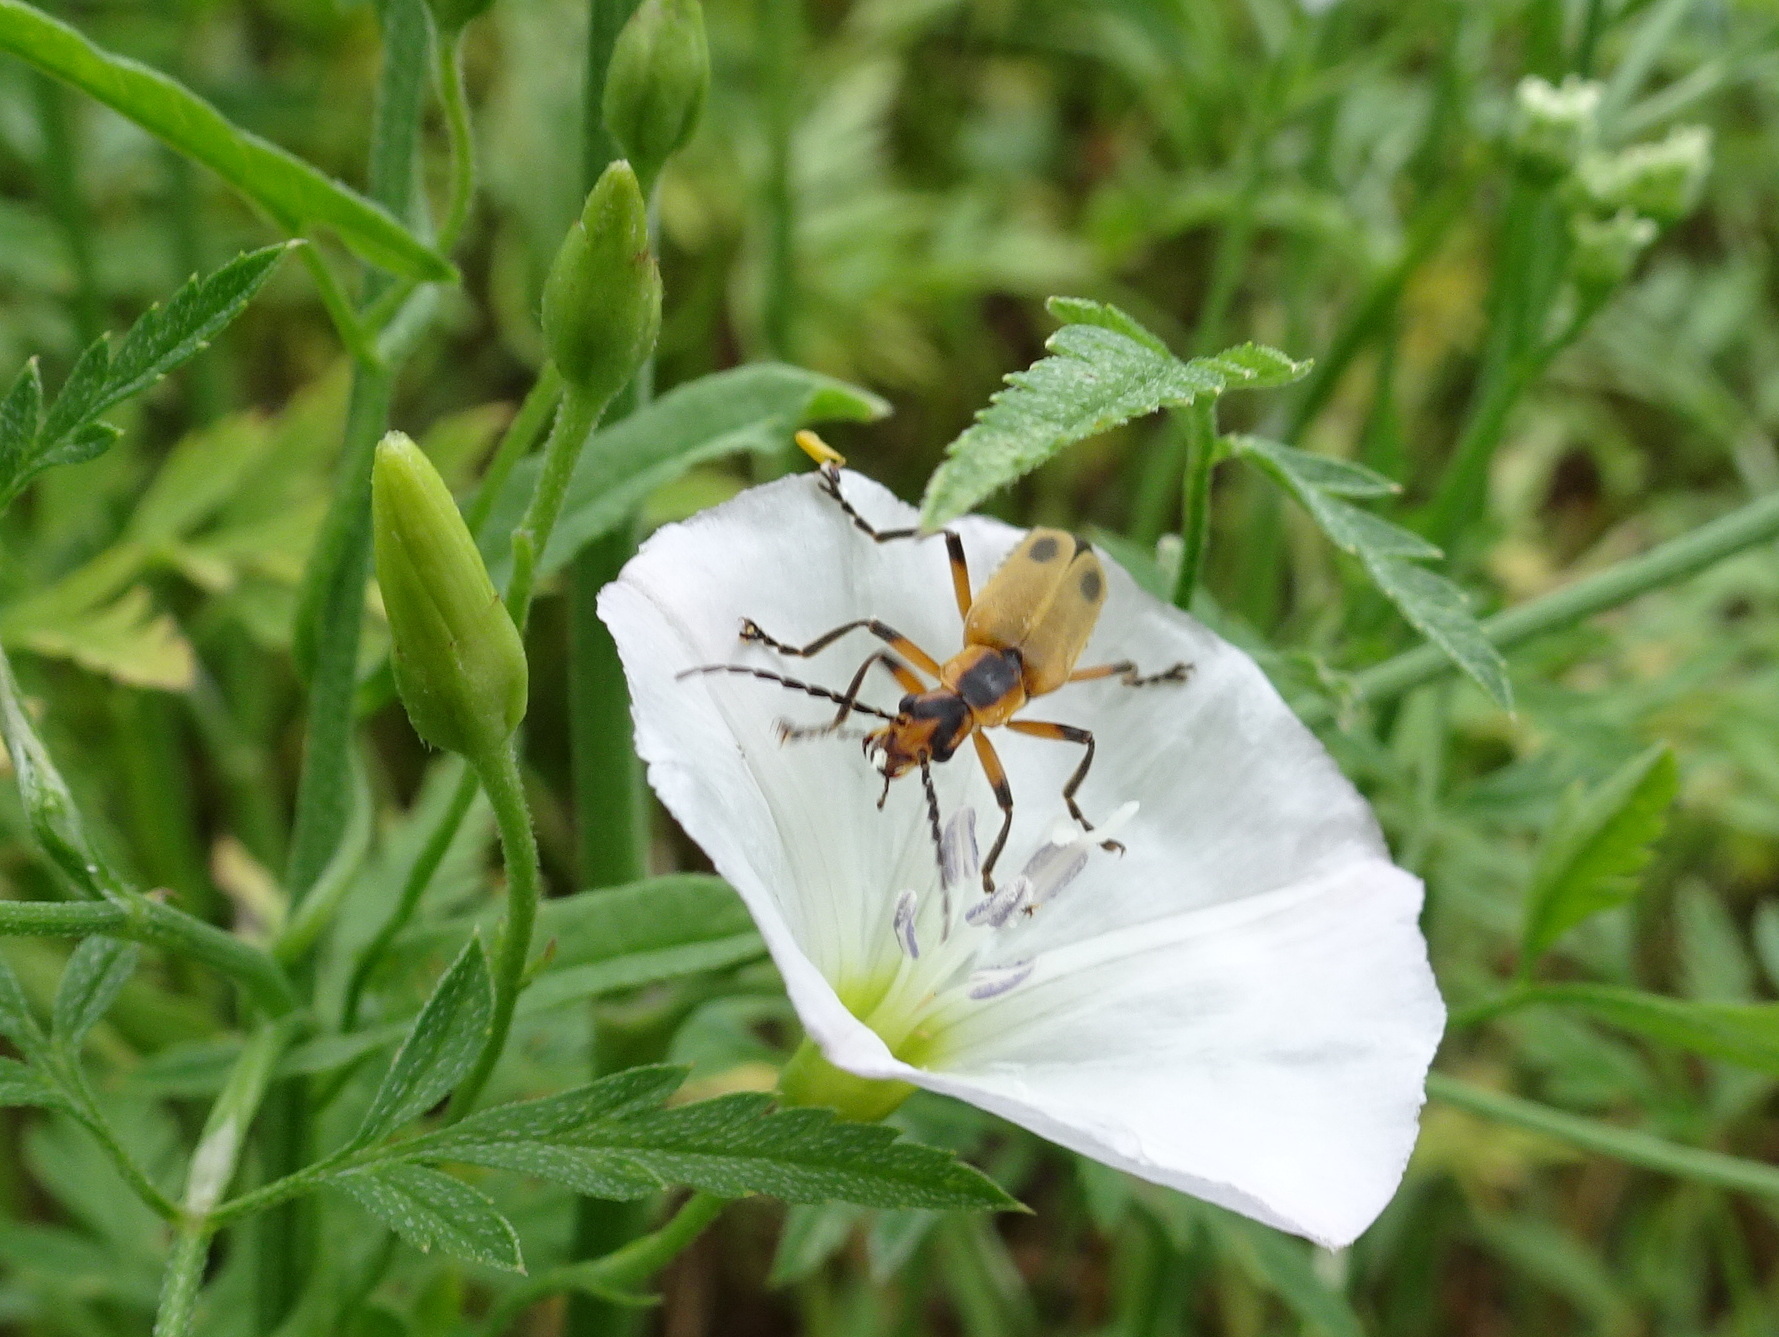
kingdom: Animalia
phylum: Arthropoda
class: Insecta
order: Coleoptera
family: Cantharidae
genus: Chauliognathus
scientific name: Chauliognathus marginatus
